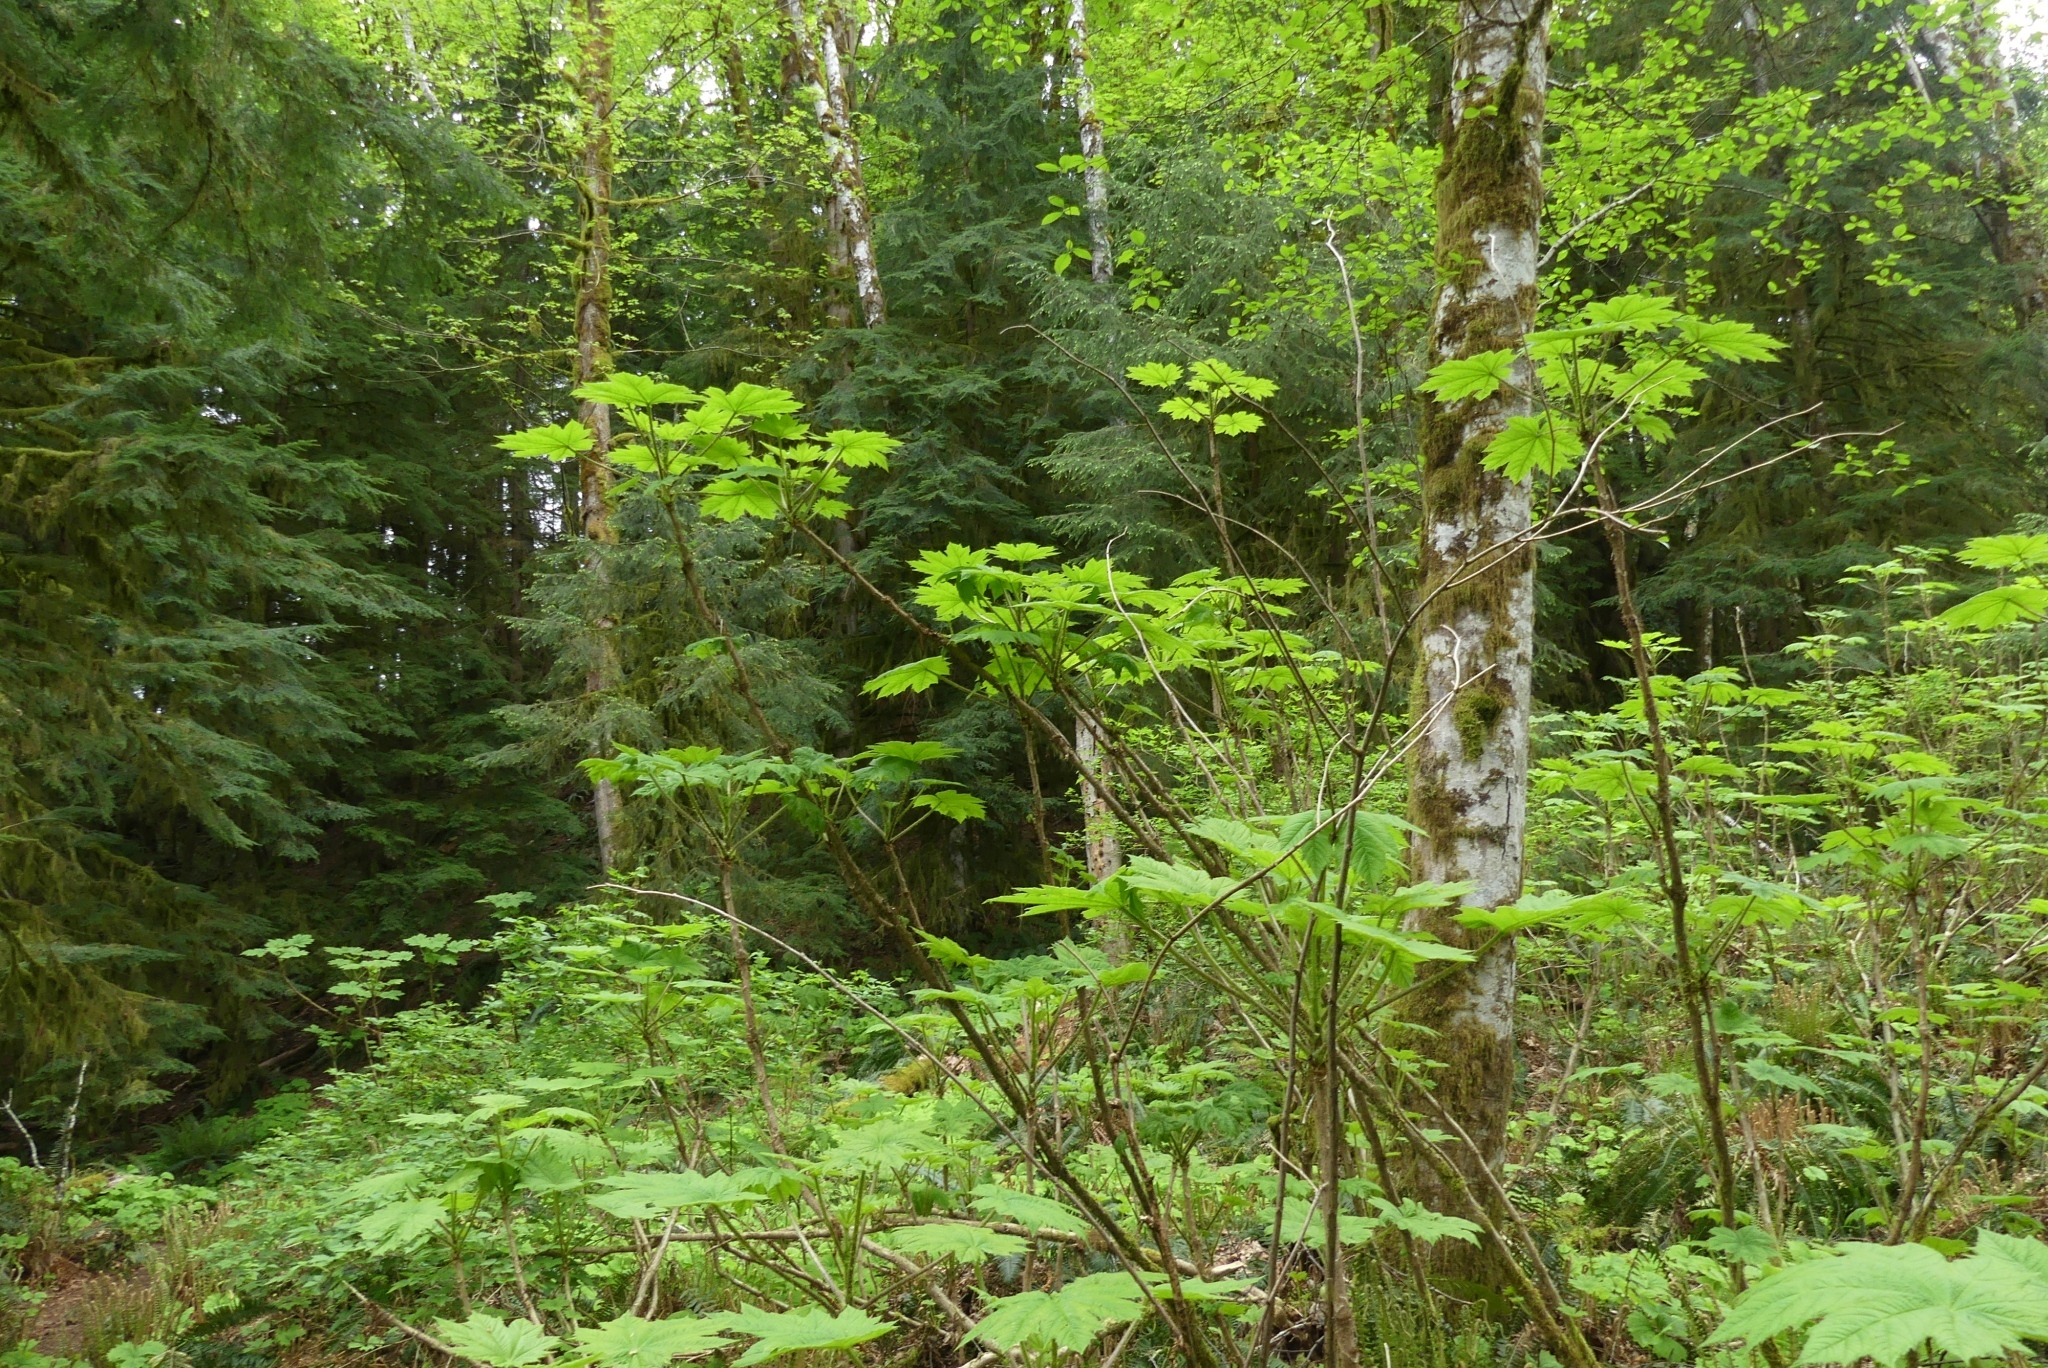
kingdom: Plantae
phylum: Tracheophyta
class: Magnoliopsida
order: Apiales
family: Araliaceae
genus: Oplopanax
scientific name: Oplopanax horridus
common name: Devil's walking-stick
